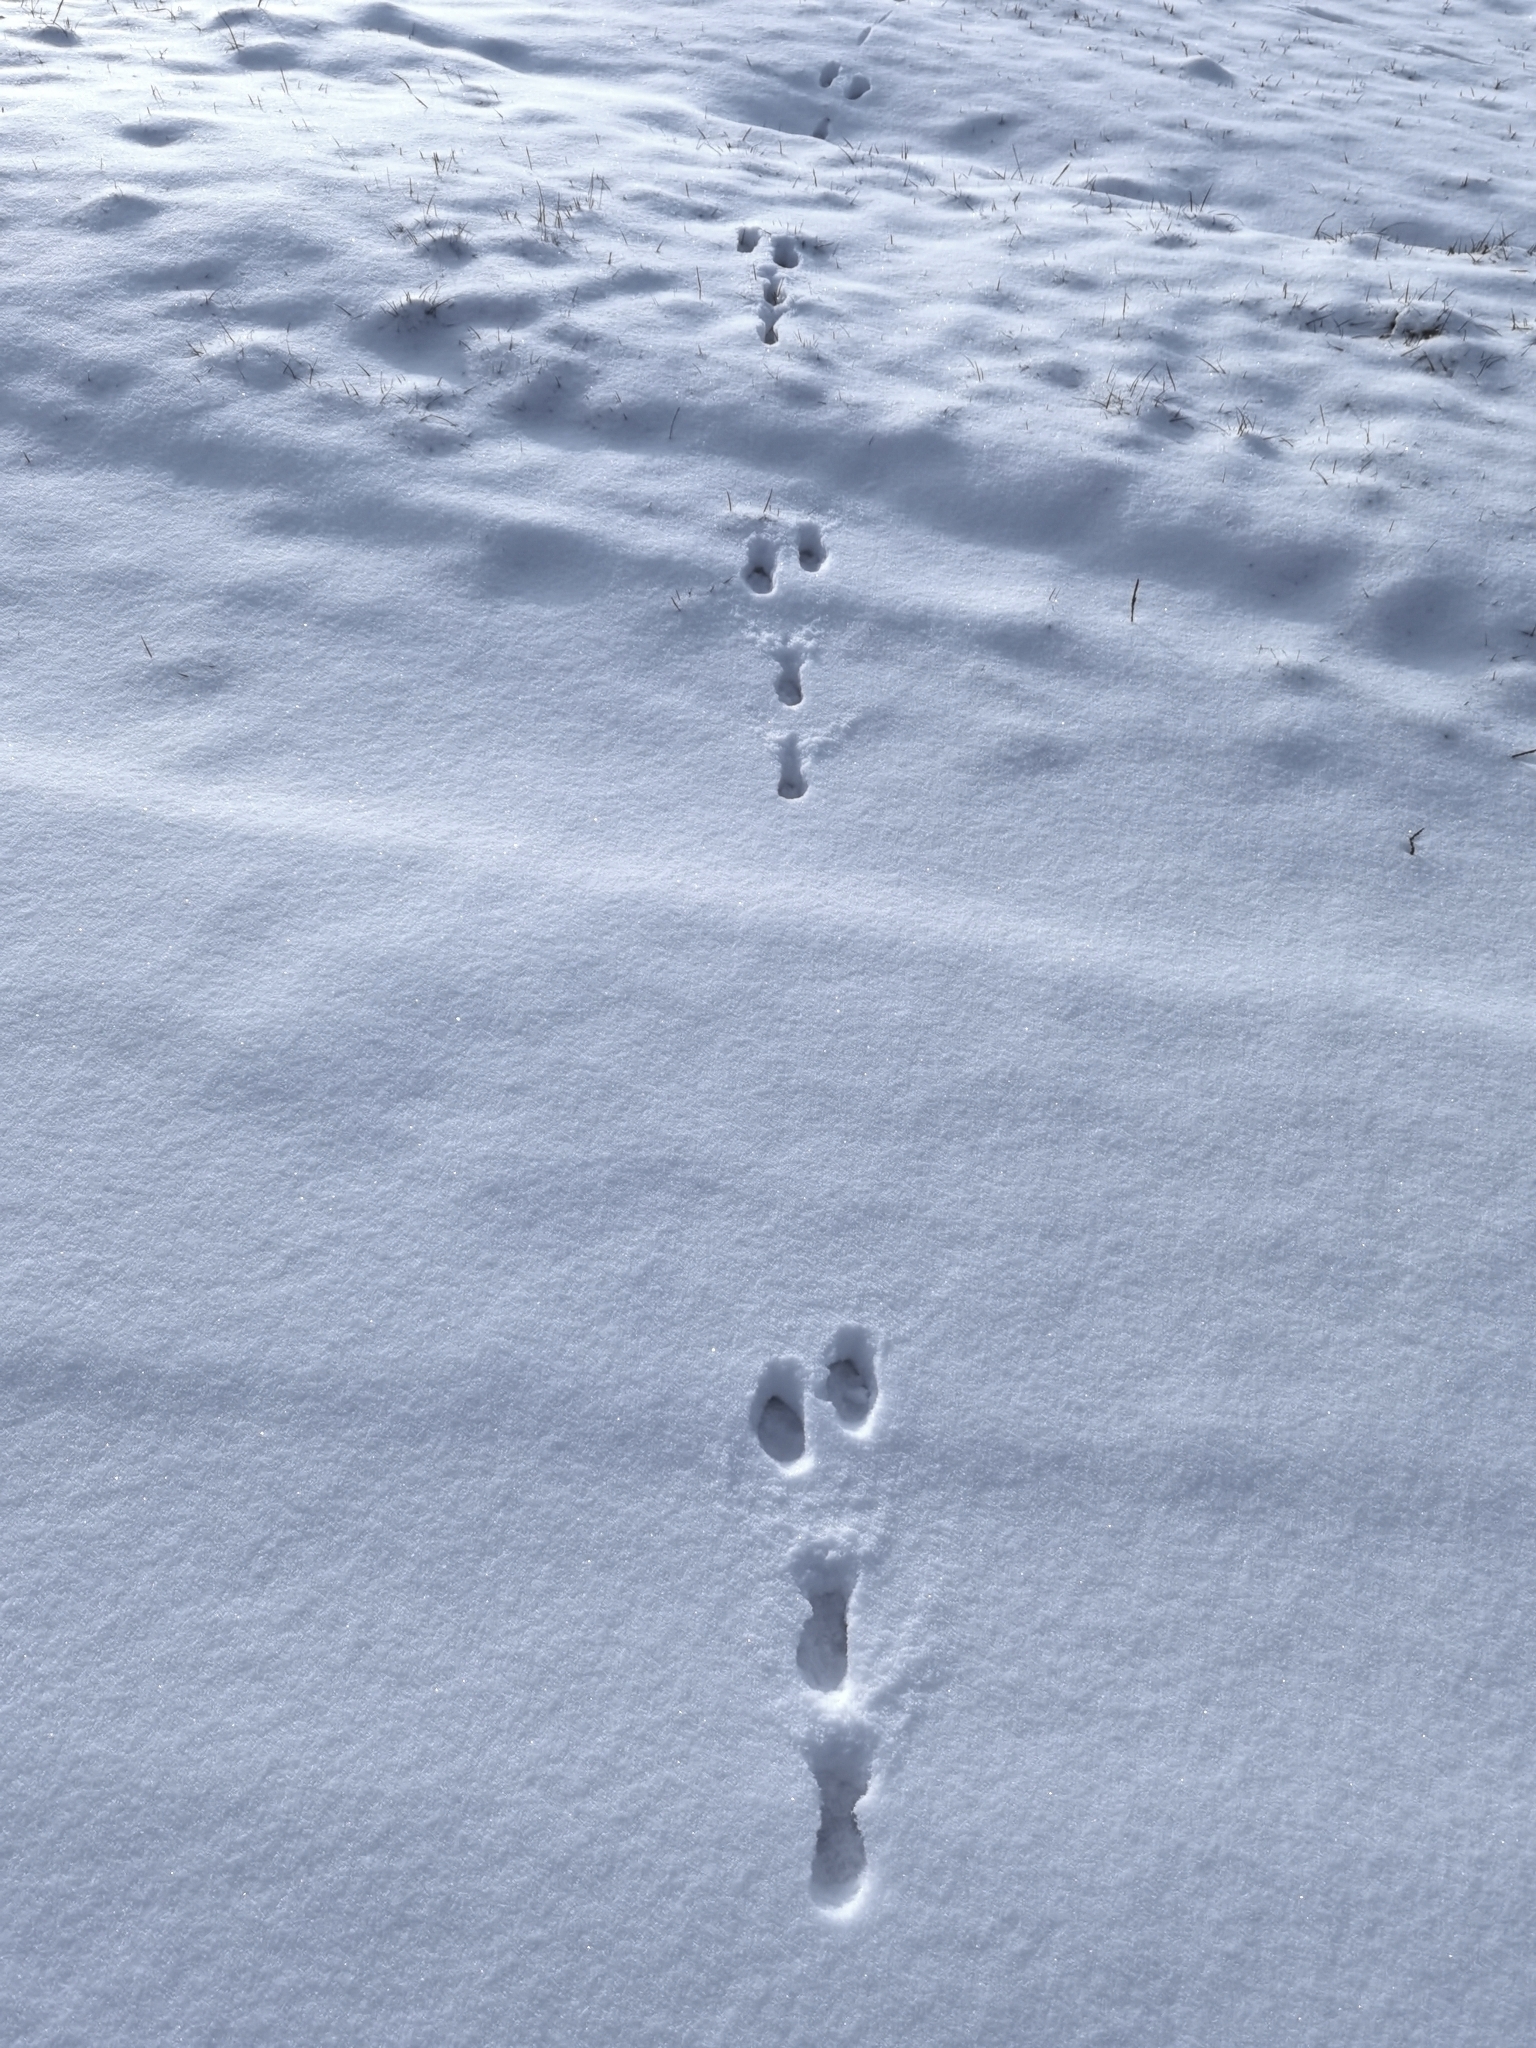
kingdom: Animalia
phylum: Chordata
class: Mammalia
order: Lagomorpha
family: Leporidae
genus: Lepus
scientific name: Lepus europaeus
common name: European hare
